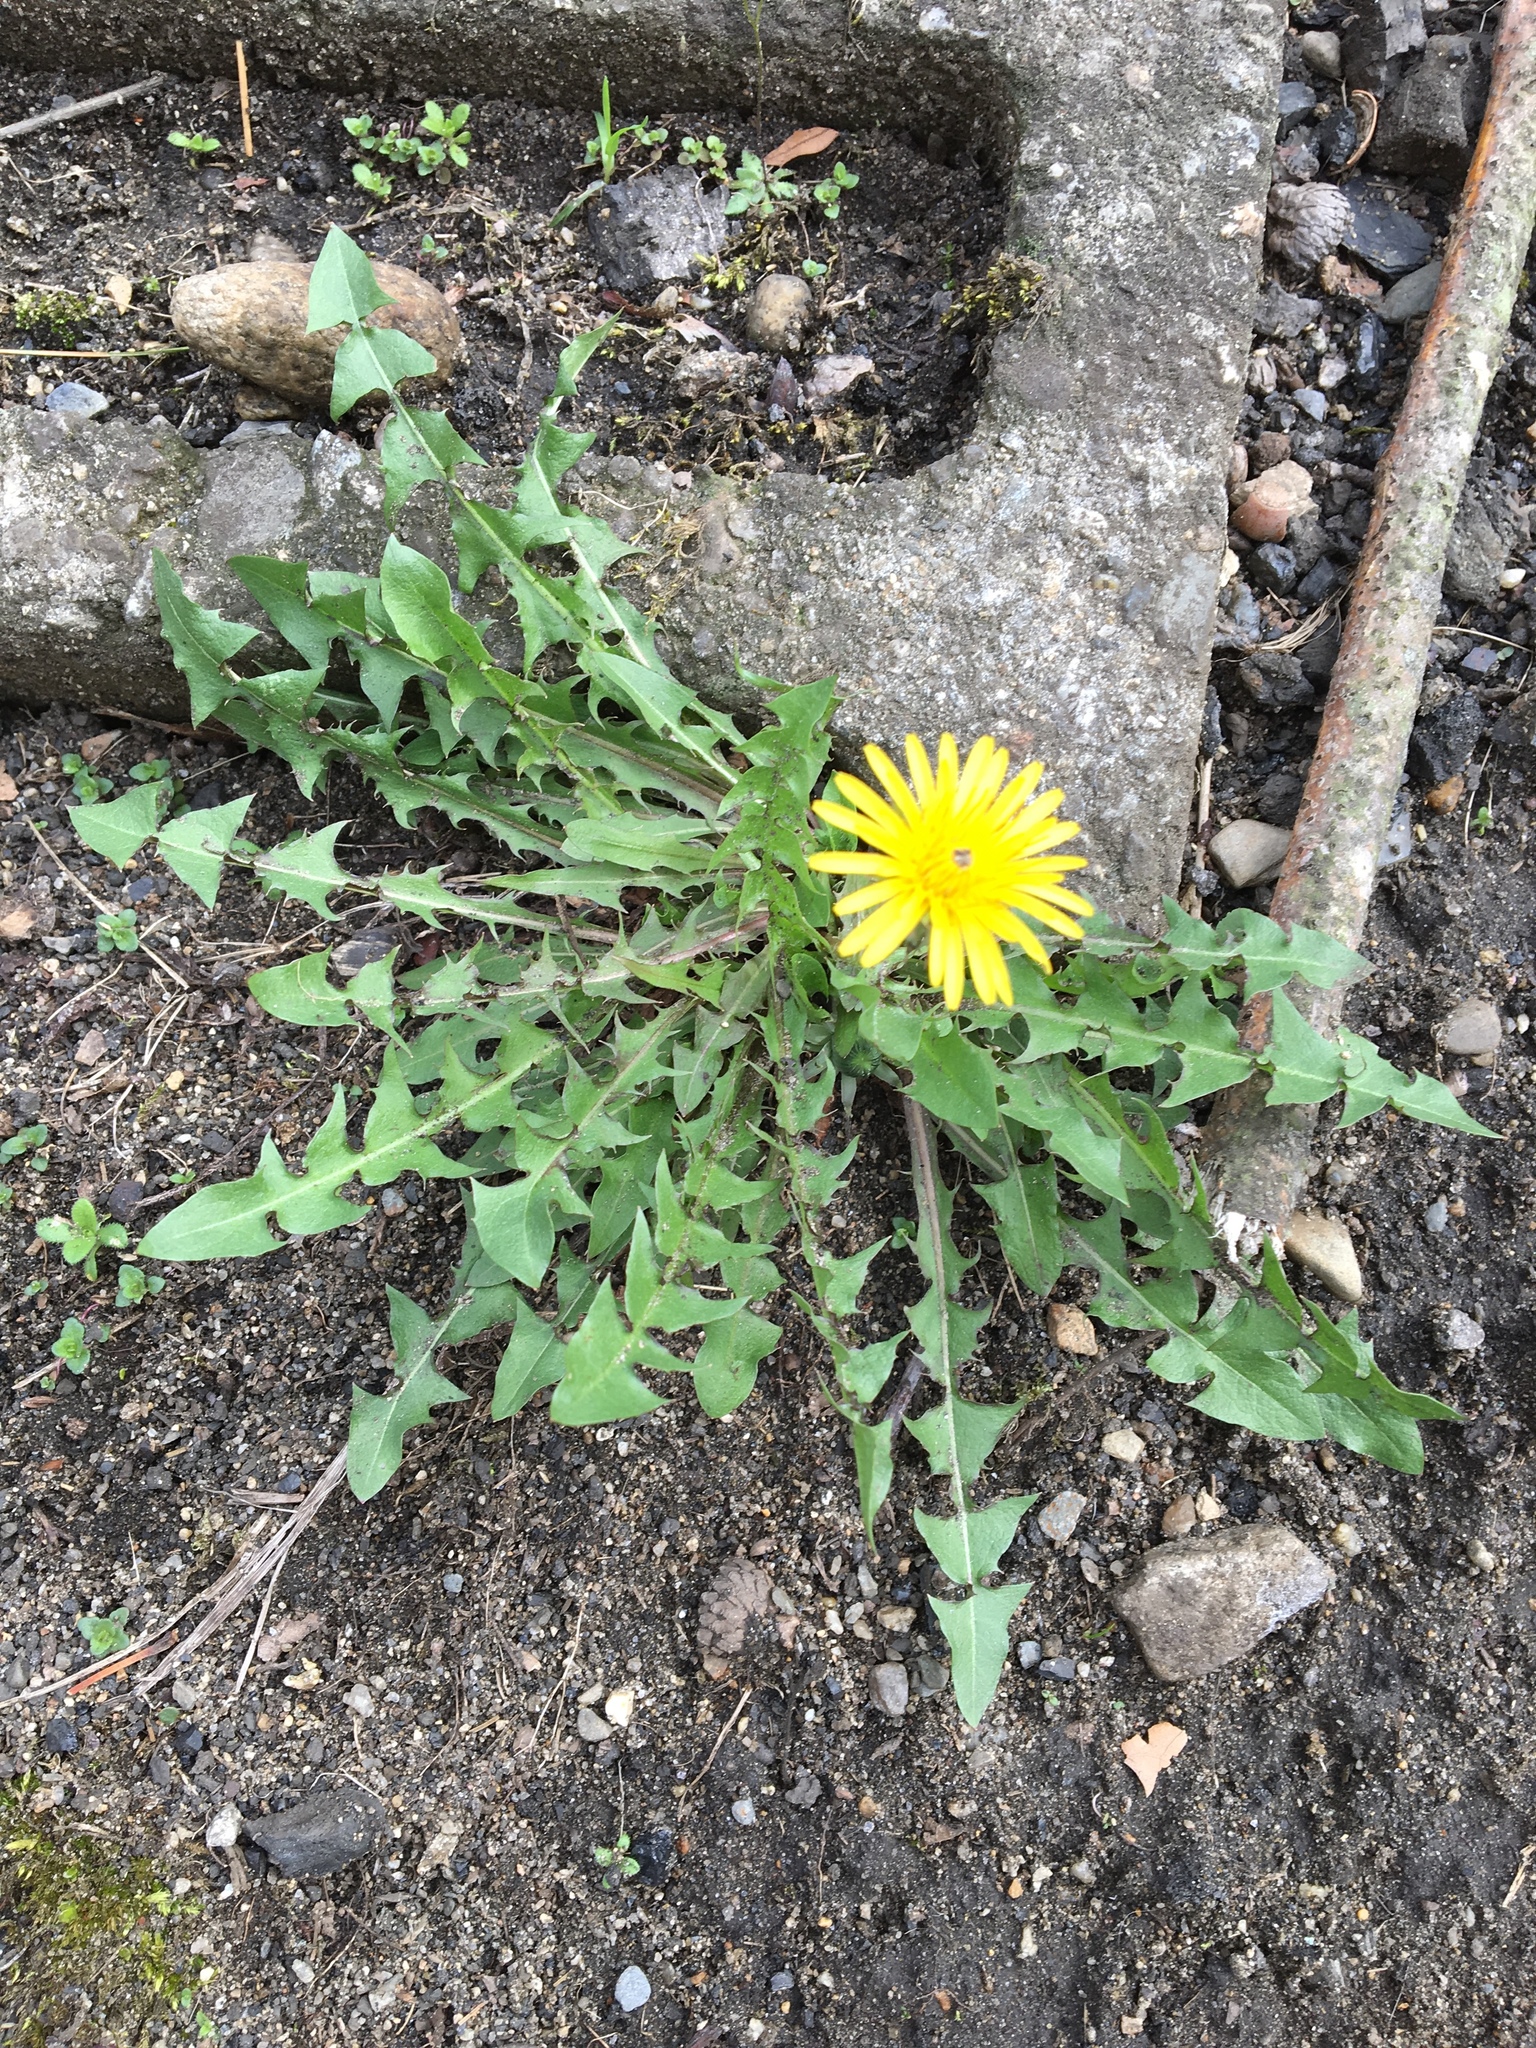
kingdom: Plantae
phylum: Tracheophyta
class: Magnoliopsida
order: Asterales
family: Asteraceae
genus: Taraxacum
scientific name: Taraxacum officinale
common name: Common dandelion
